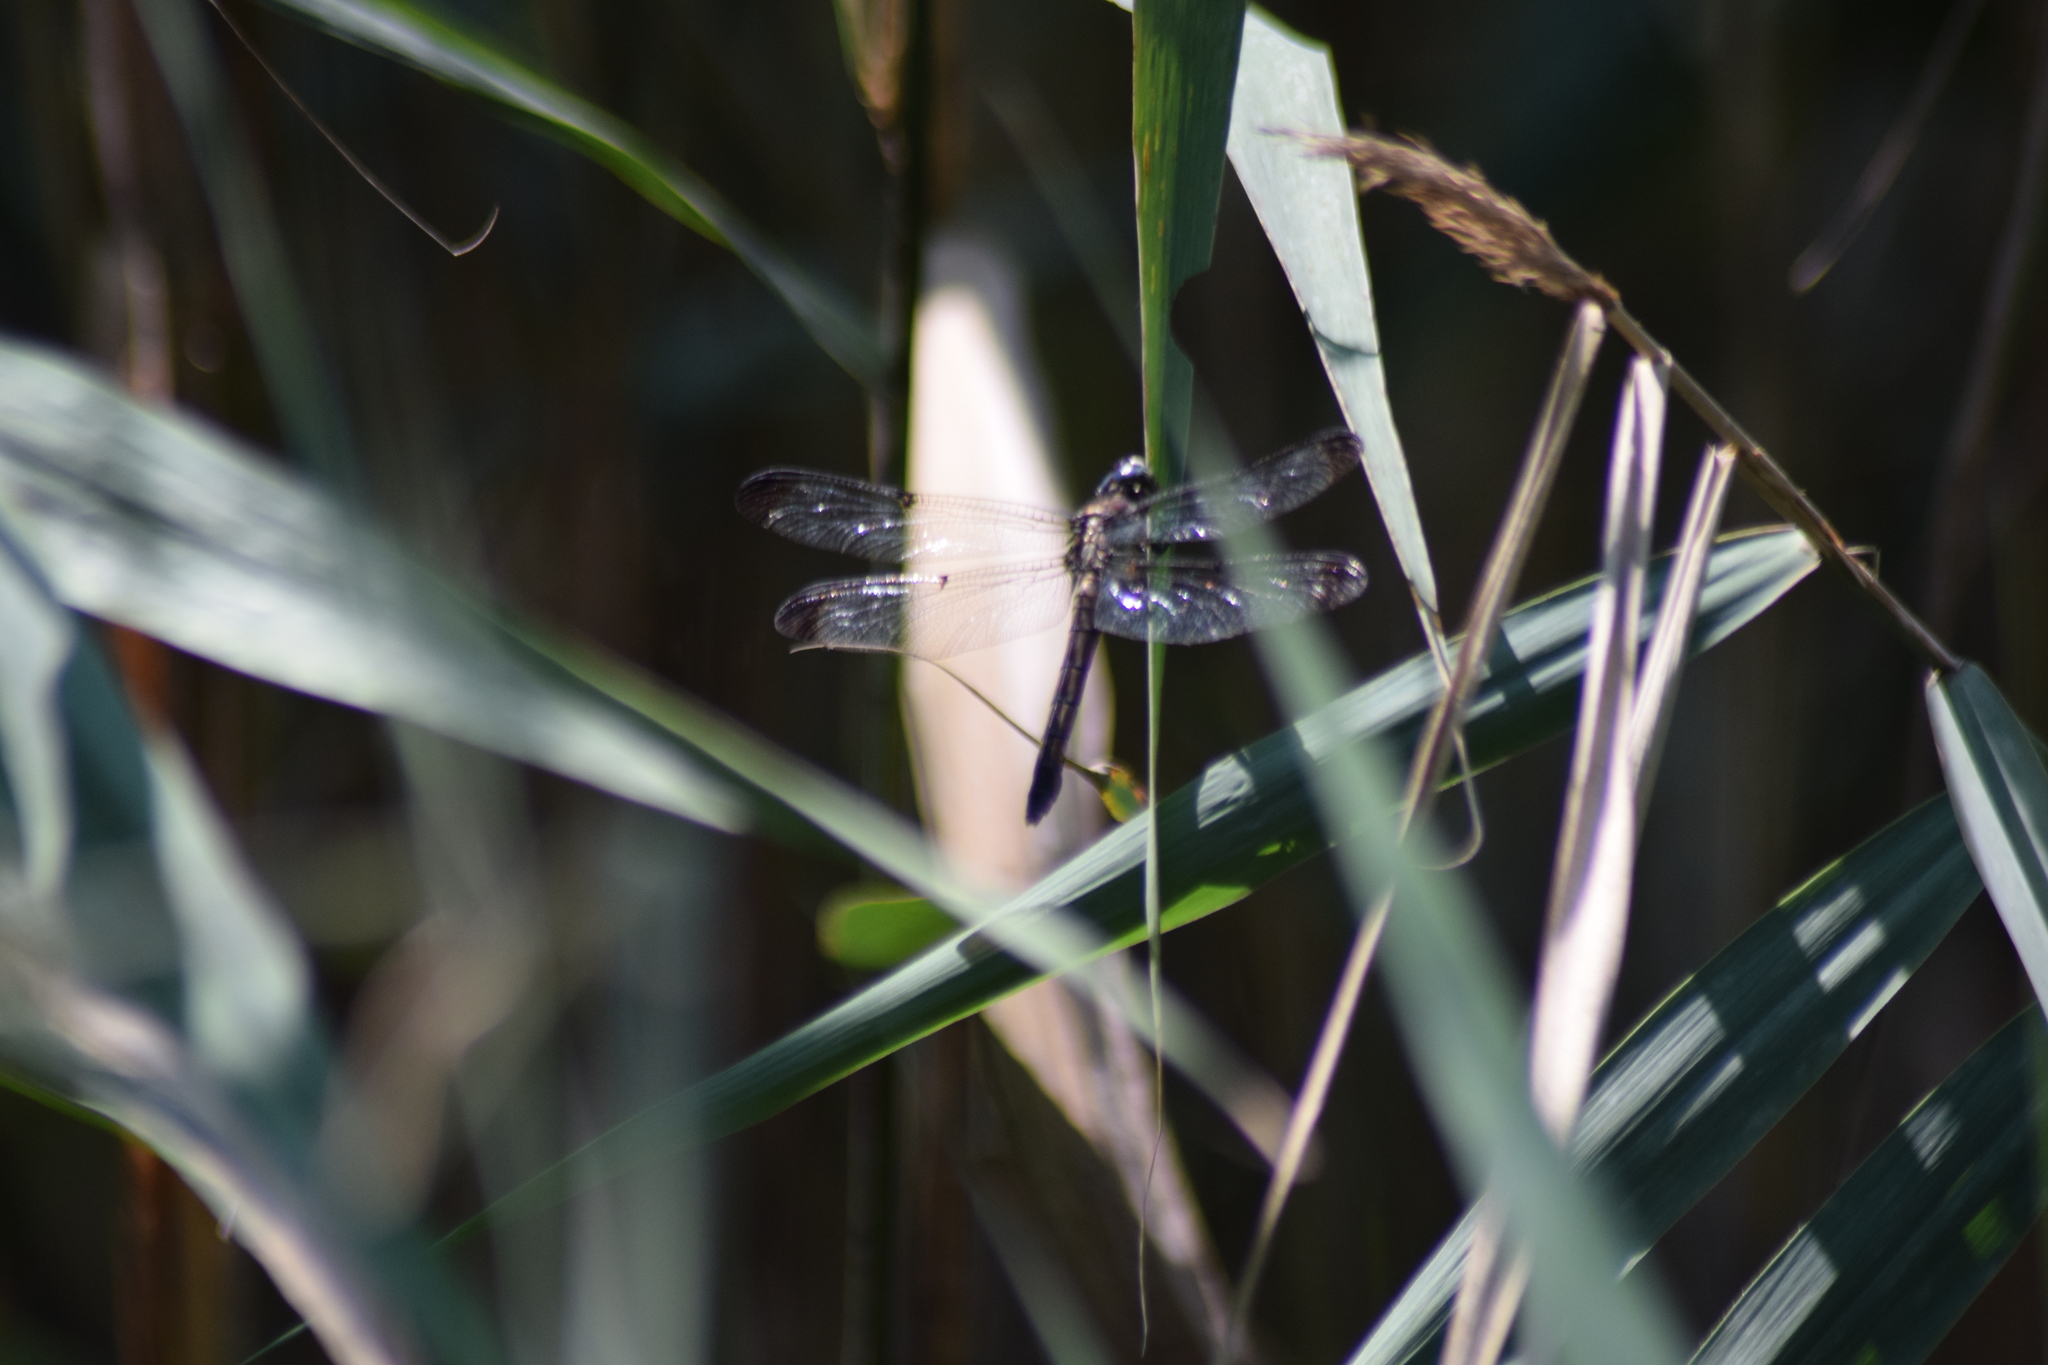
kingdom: Animalia
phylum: Arthropoda
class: Insecta
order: Odonata
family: Libellulidae
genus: Libellula
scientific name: Libellula vibrans
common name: Great blue skimmer
